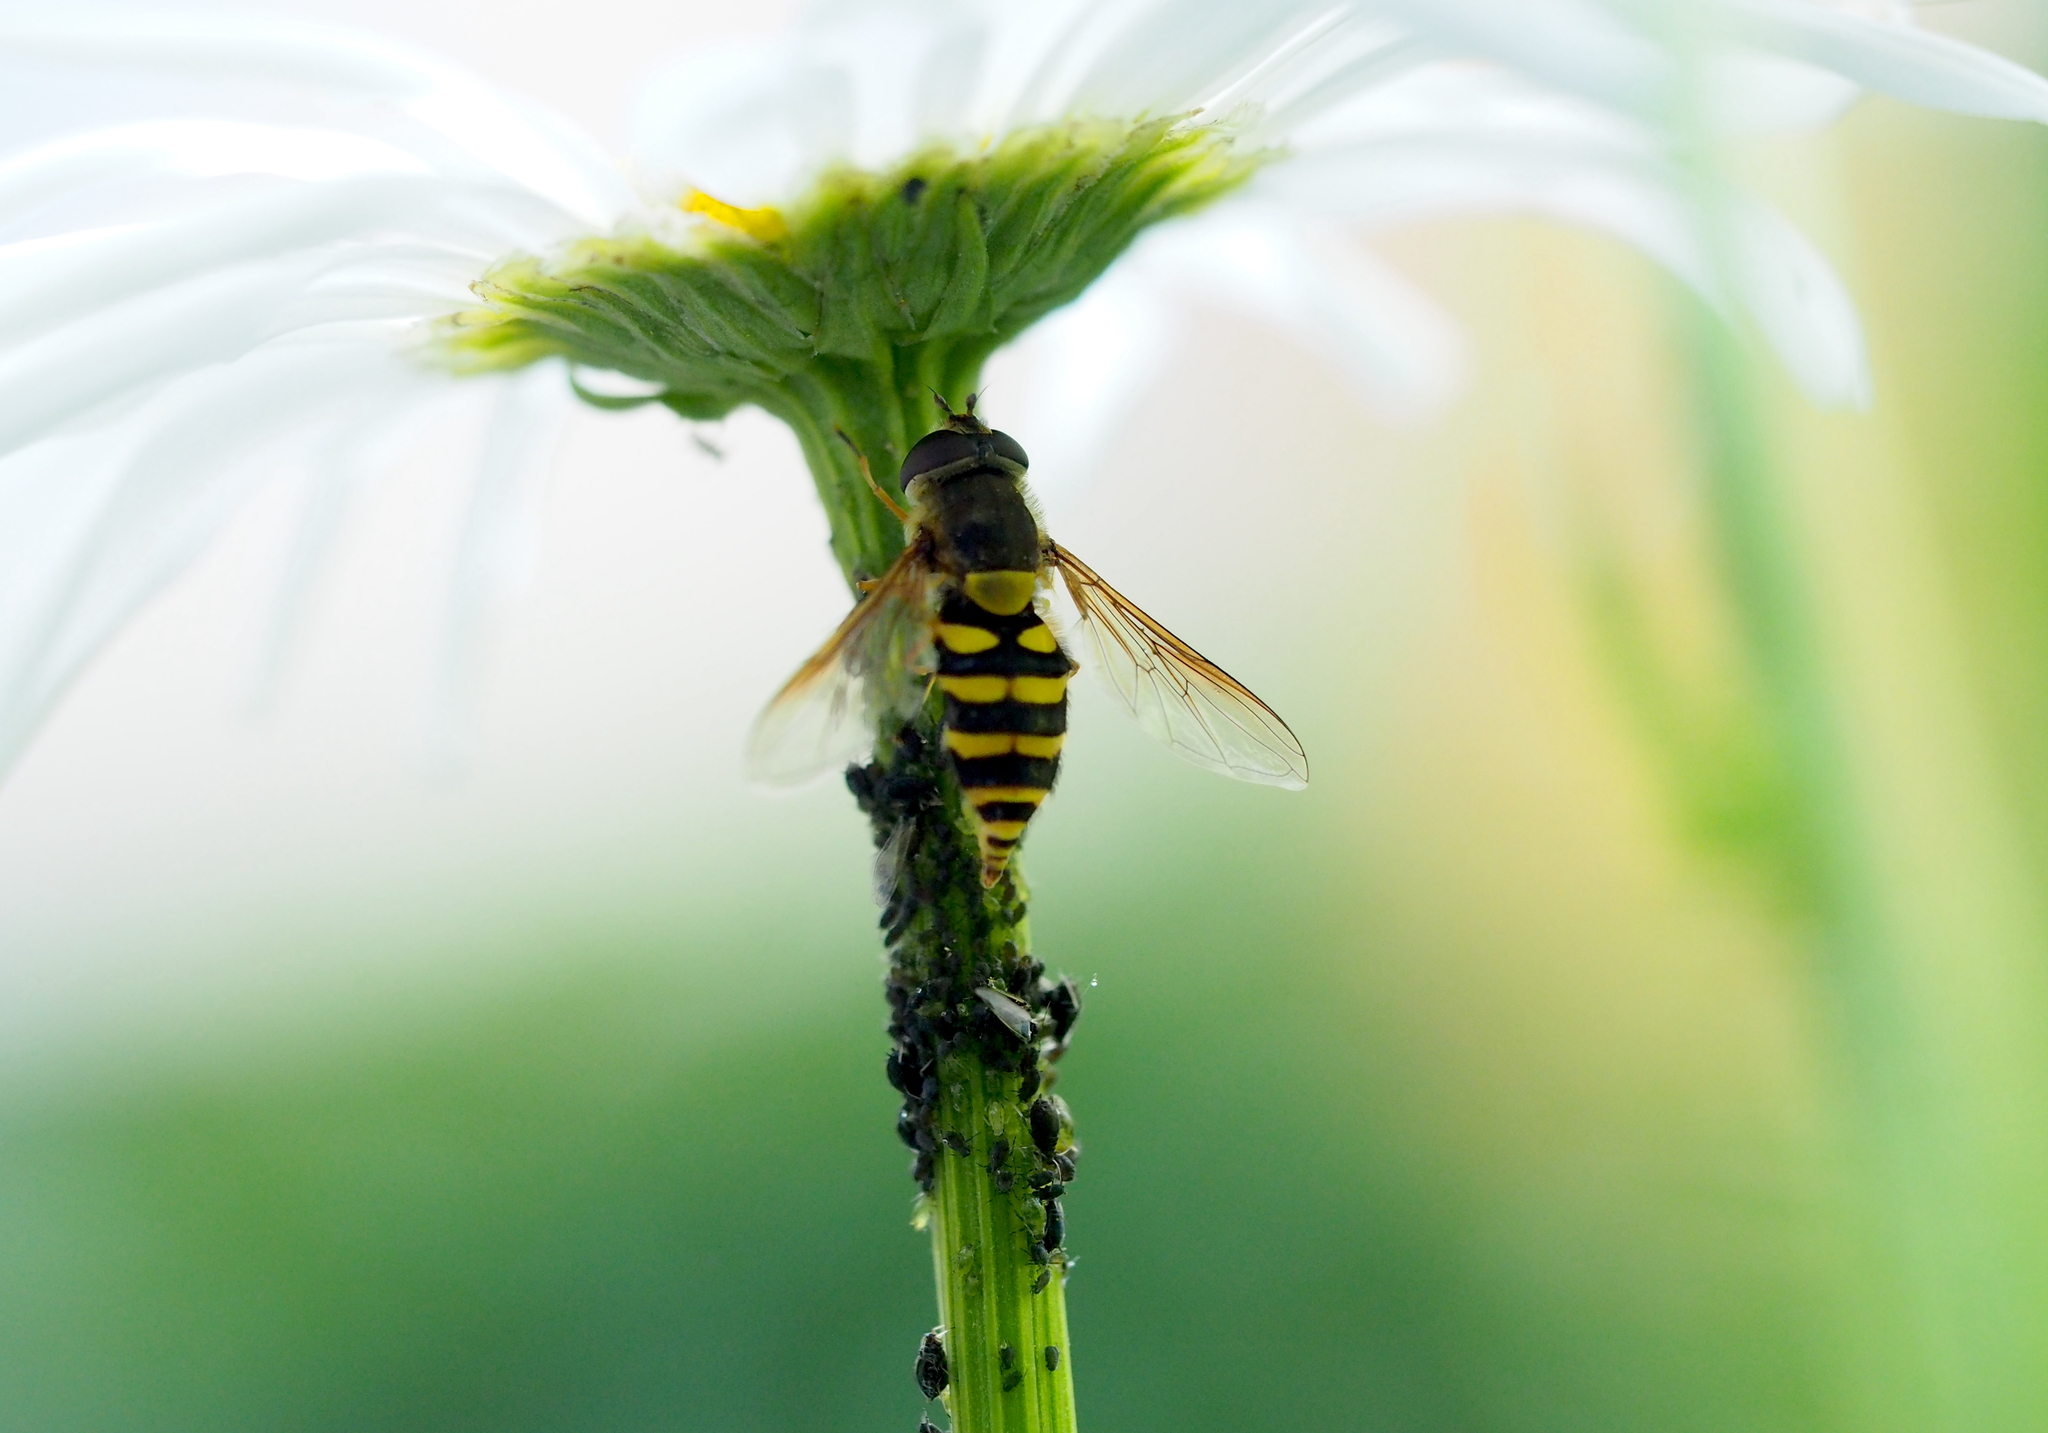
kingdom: Animalia
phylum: Arthropoda
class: Insecta
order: Diptera
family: Syrphidae
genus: Syrphus
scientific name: Syrphus ribesii
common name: Common flower fly
